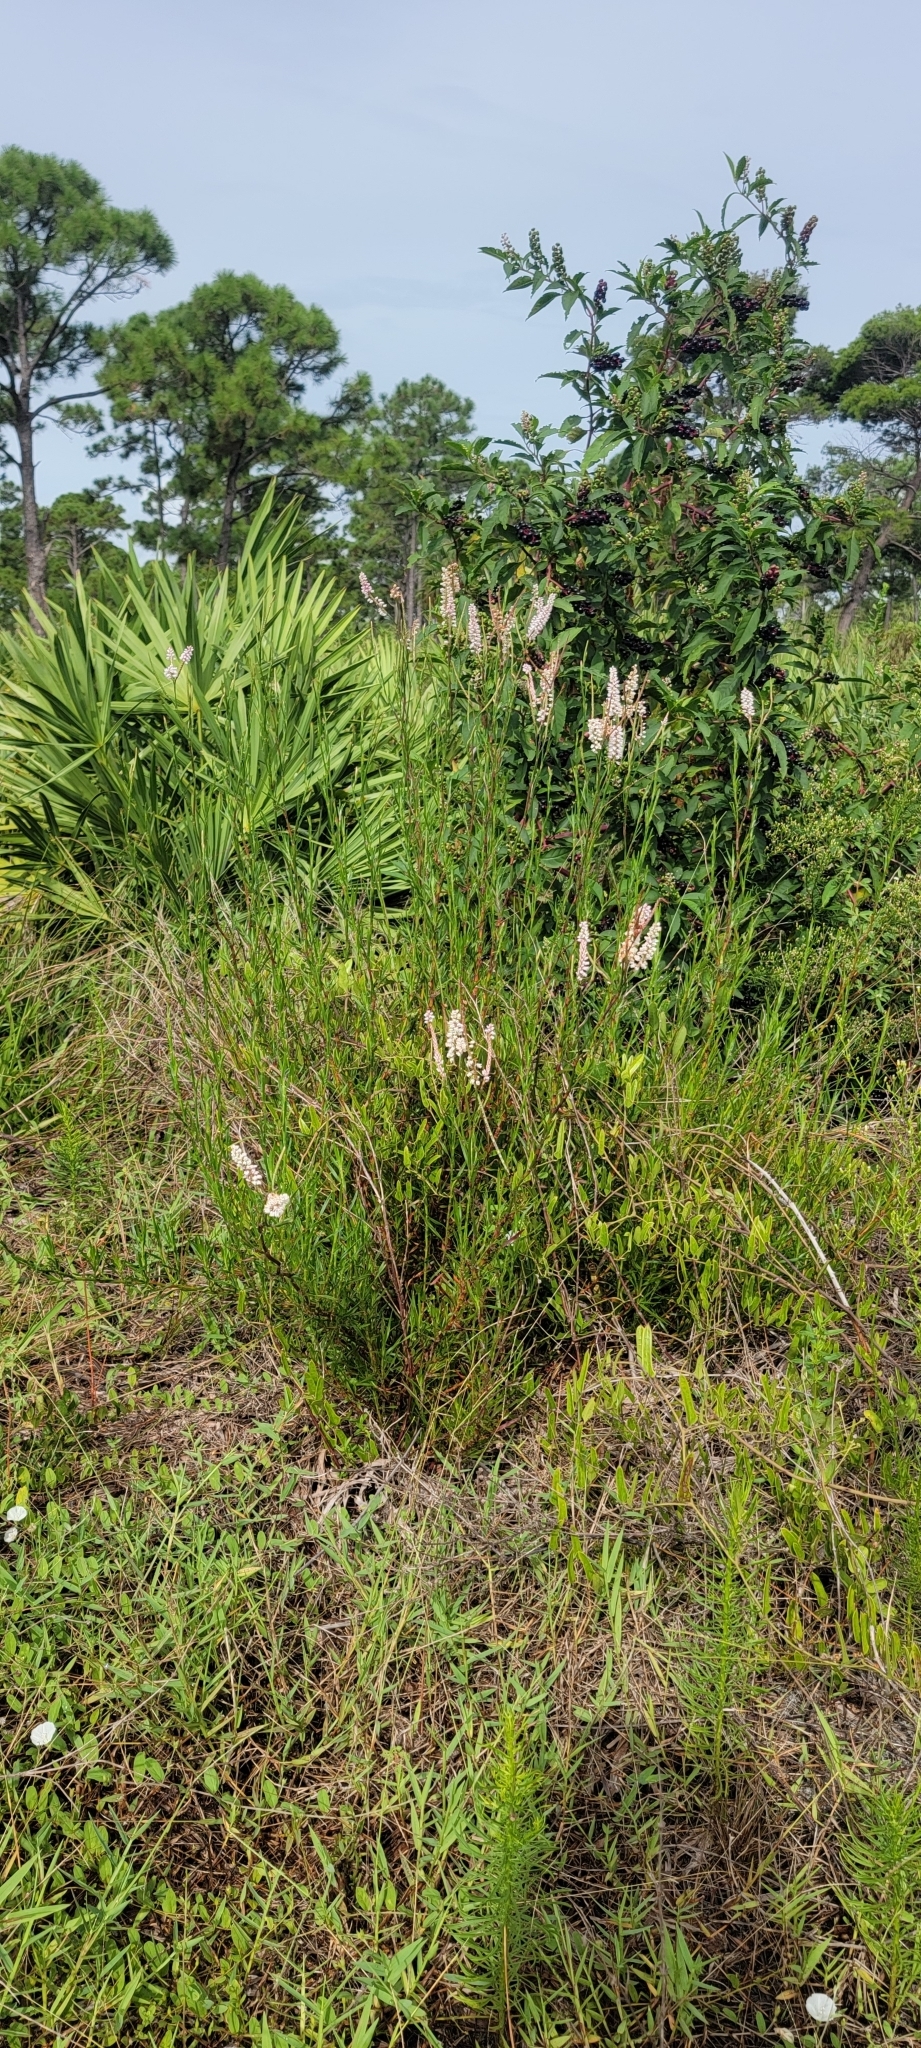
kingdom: Plantae
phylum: Tracheophyta
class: Magnoliopsida
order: Caryophyllales
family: Polygonaceae
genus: Polygonella
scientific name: Polygonella robusta
